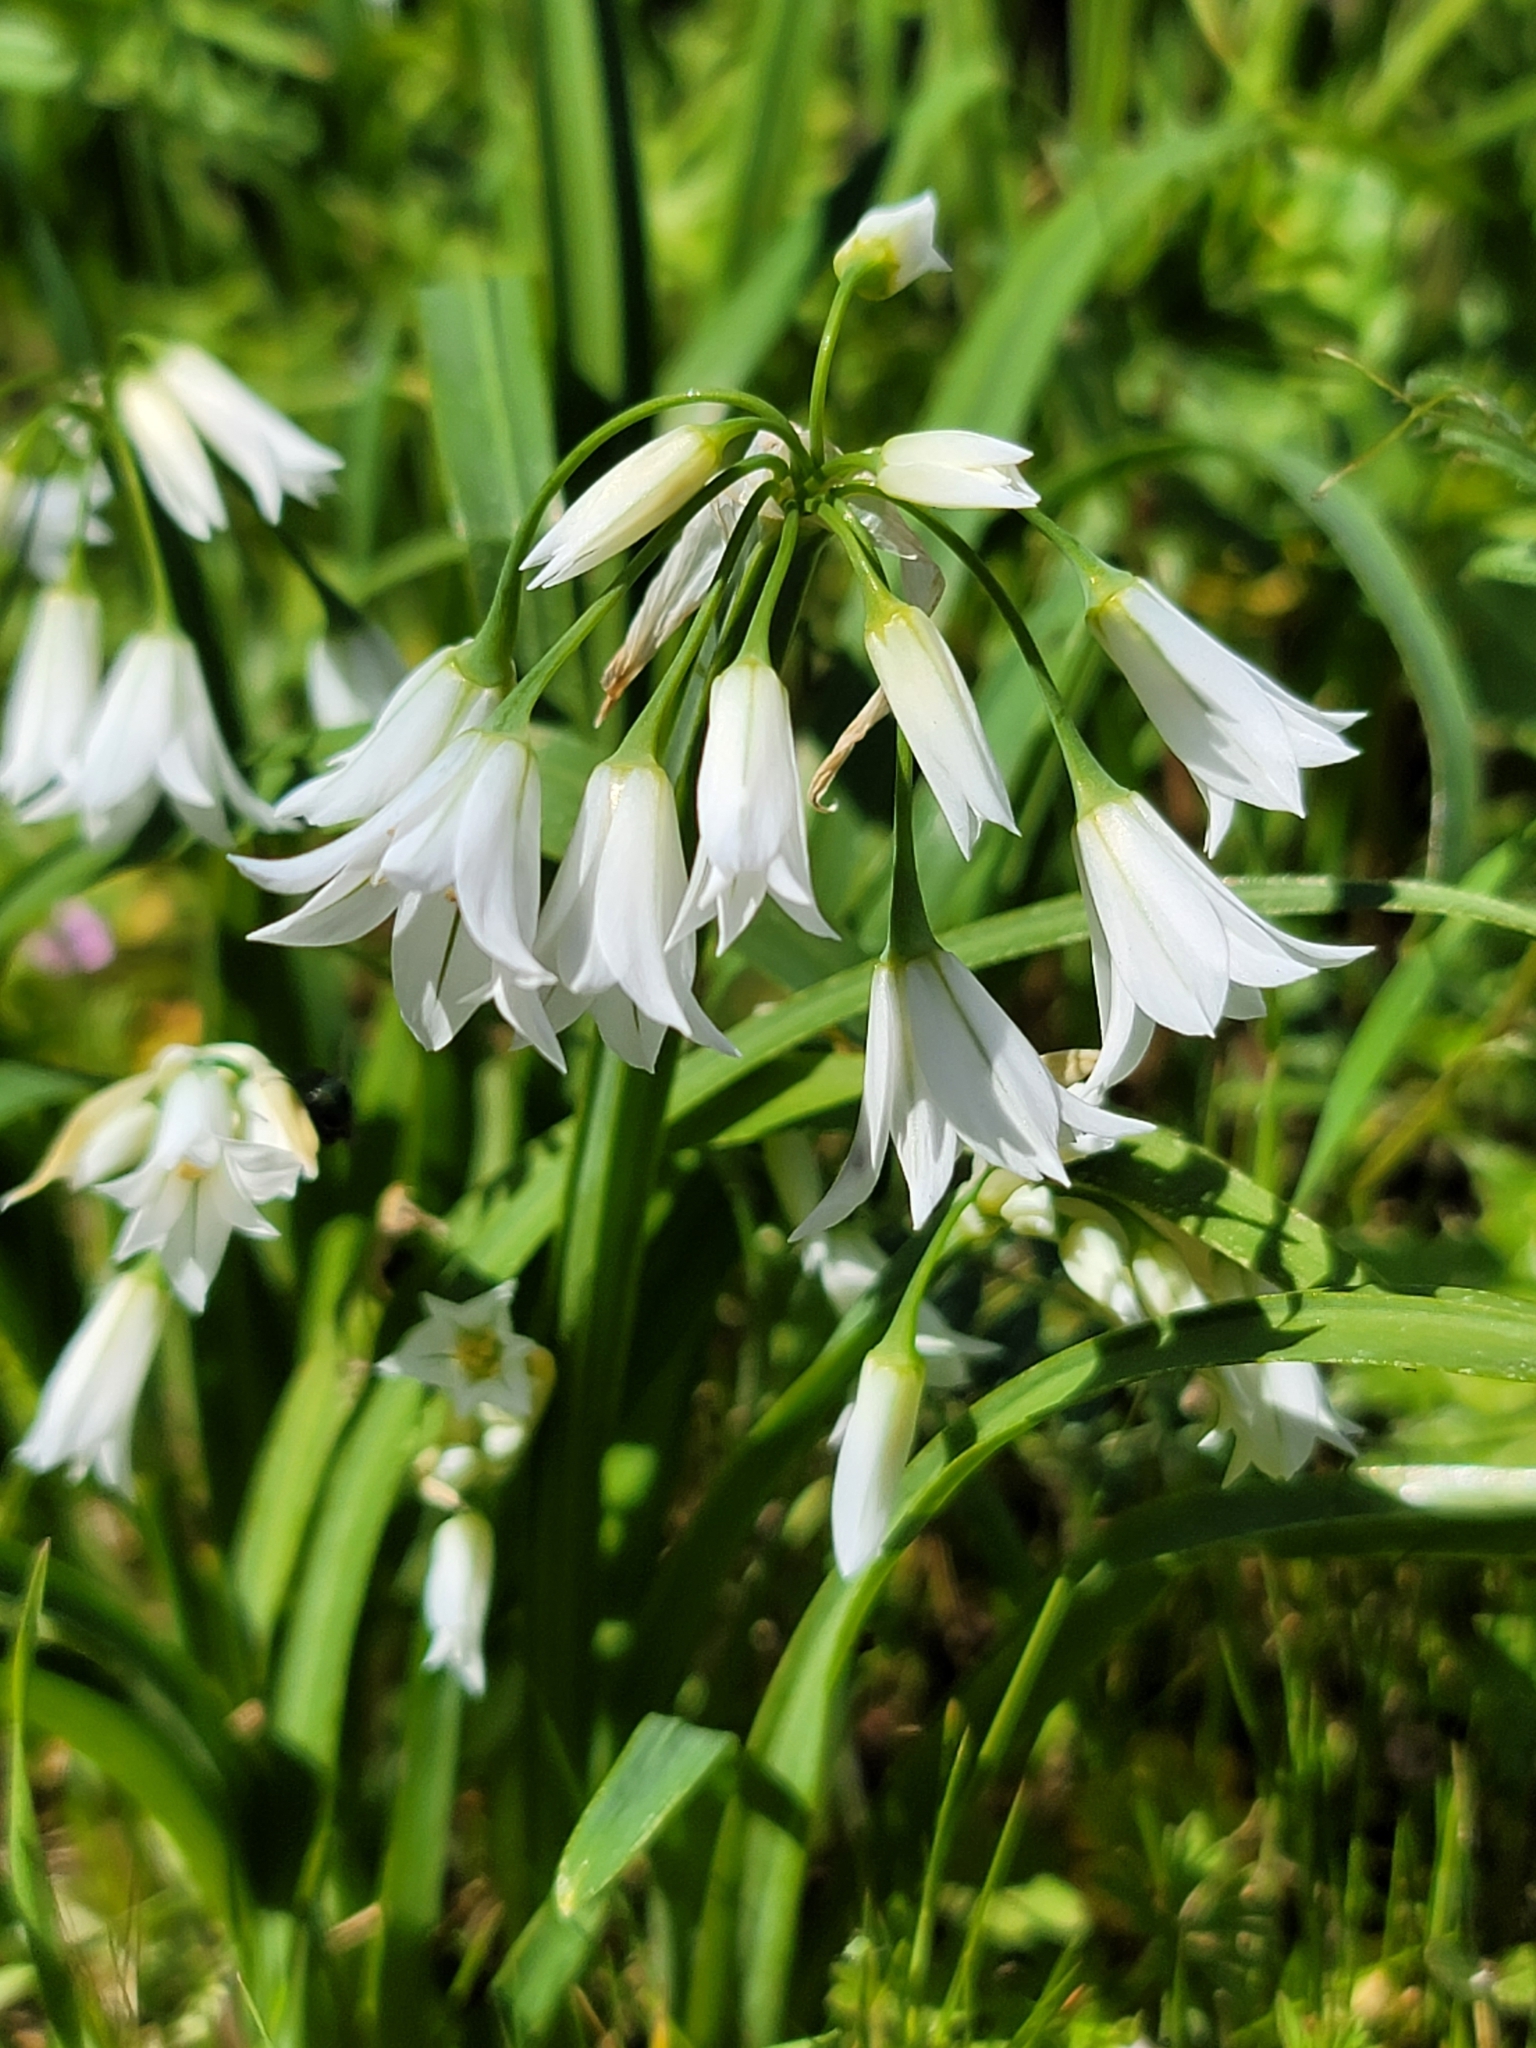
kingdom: Plantae
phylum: Tracheophyta
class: Liliopsida
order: Asparagales
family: Amaryllidaceae
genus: Allium
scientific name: Allium triquetrum
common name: Three-cornered garlic
